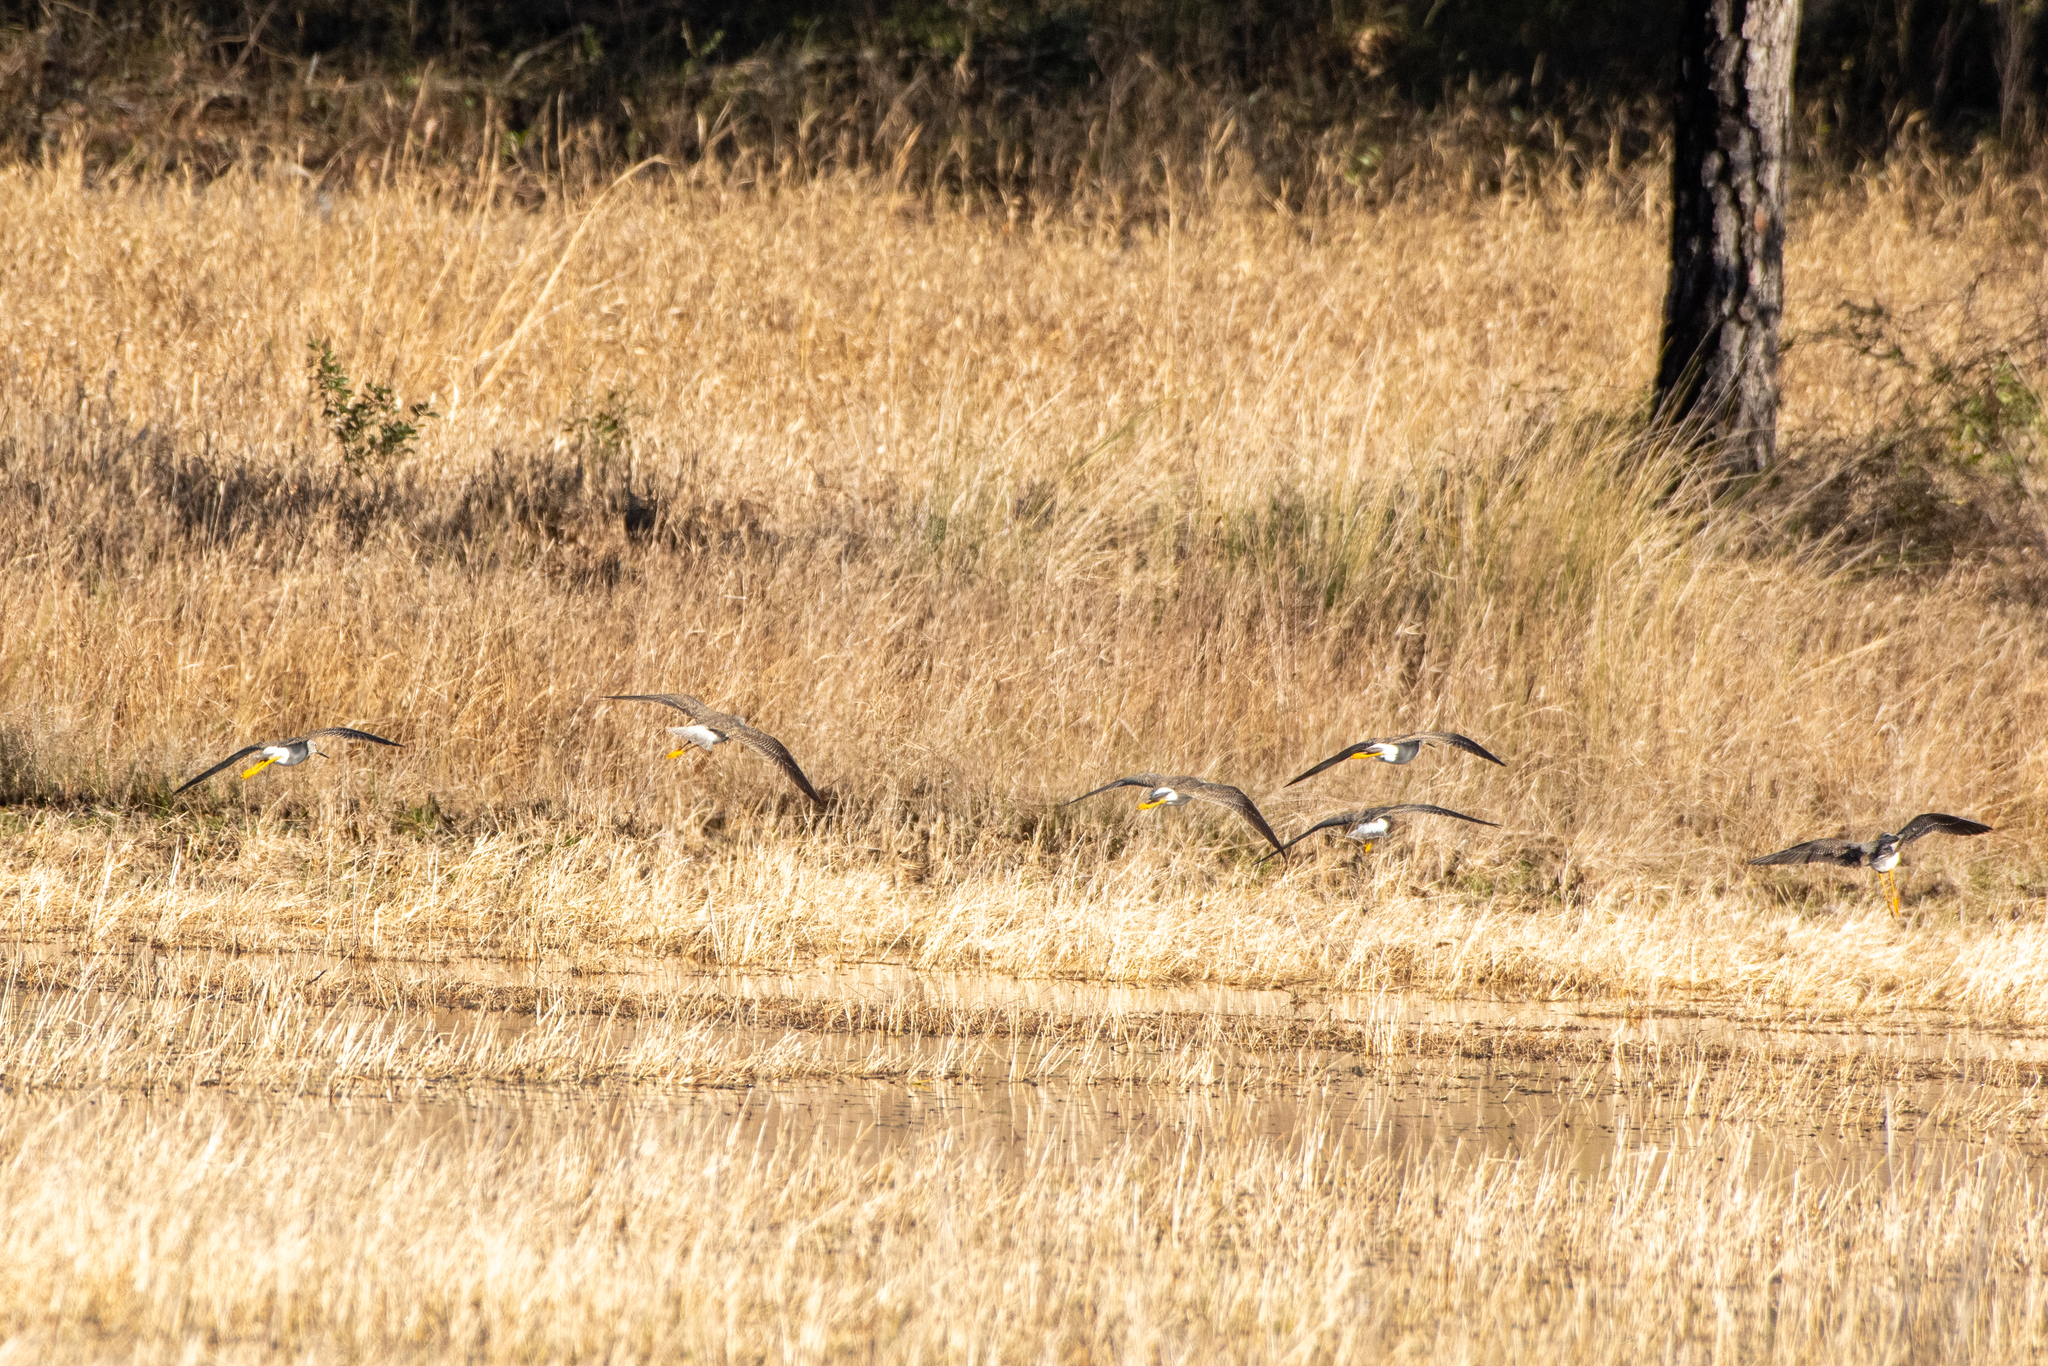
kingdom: Animalia
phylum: Chordata
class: Aves
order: Charadriiformes
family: Scolopacidae
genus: Tringa
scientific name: Tringa melanoleuca
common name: Greater yellowlegs
